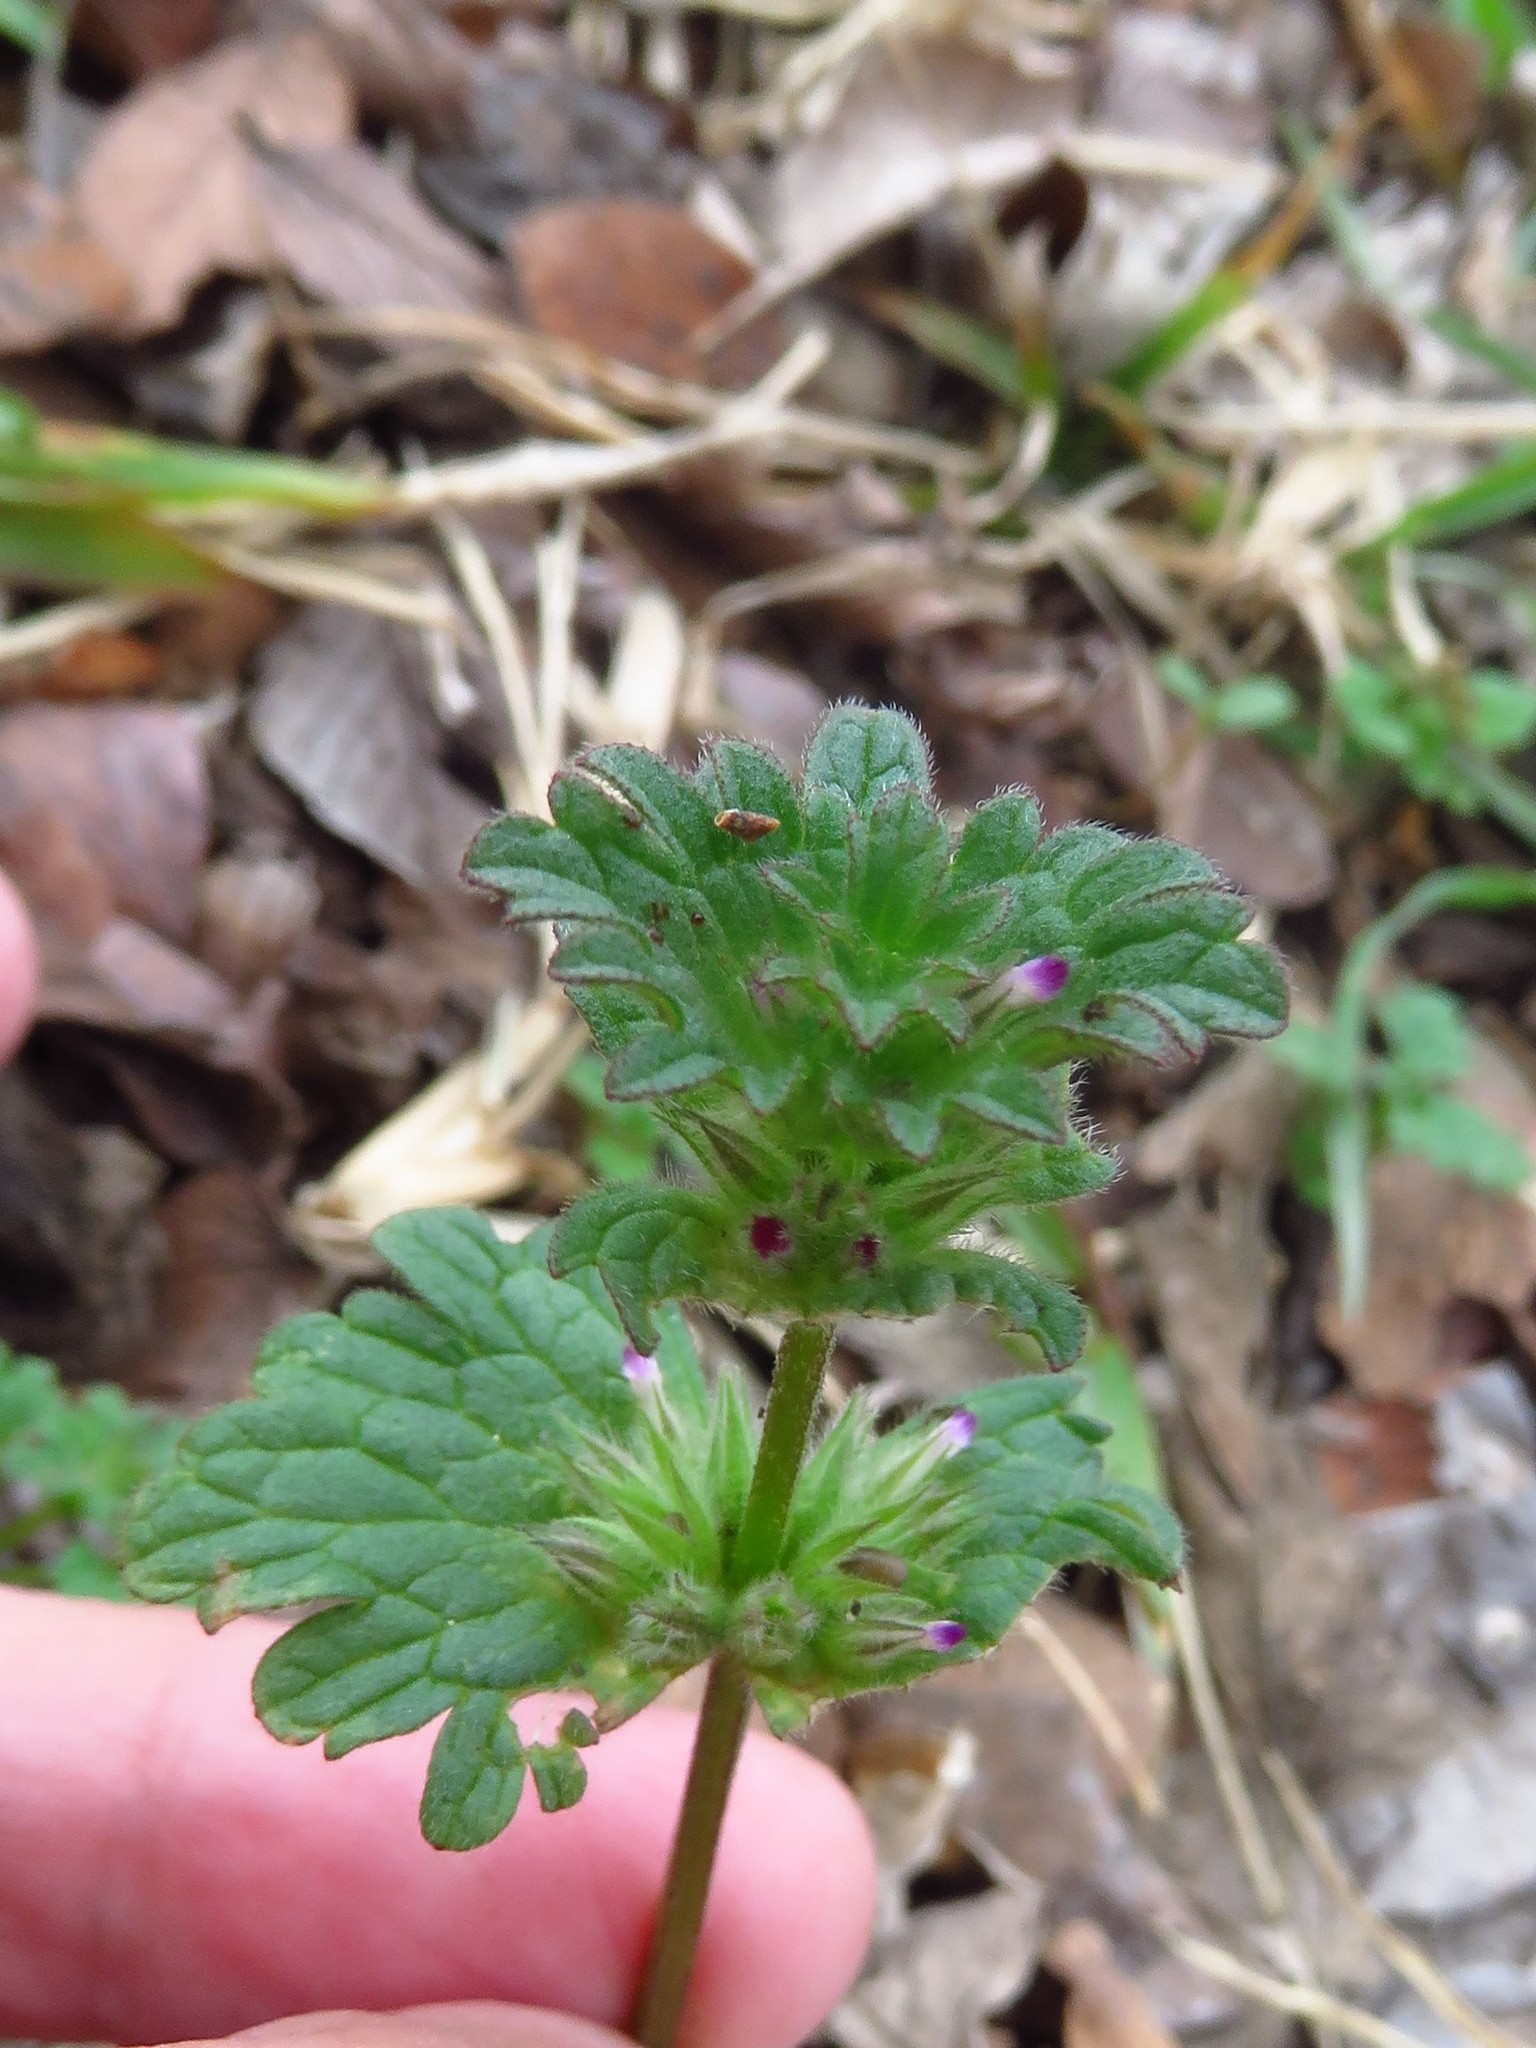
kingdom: Plantae
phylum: Tracheophyta
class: Magnoliopsida
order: Lamiales
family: Lamiaceae
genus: Lamium
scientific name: Lamium amplexicaule
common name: Henbit dead-nettle
